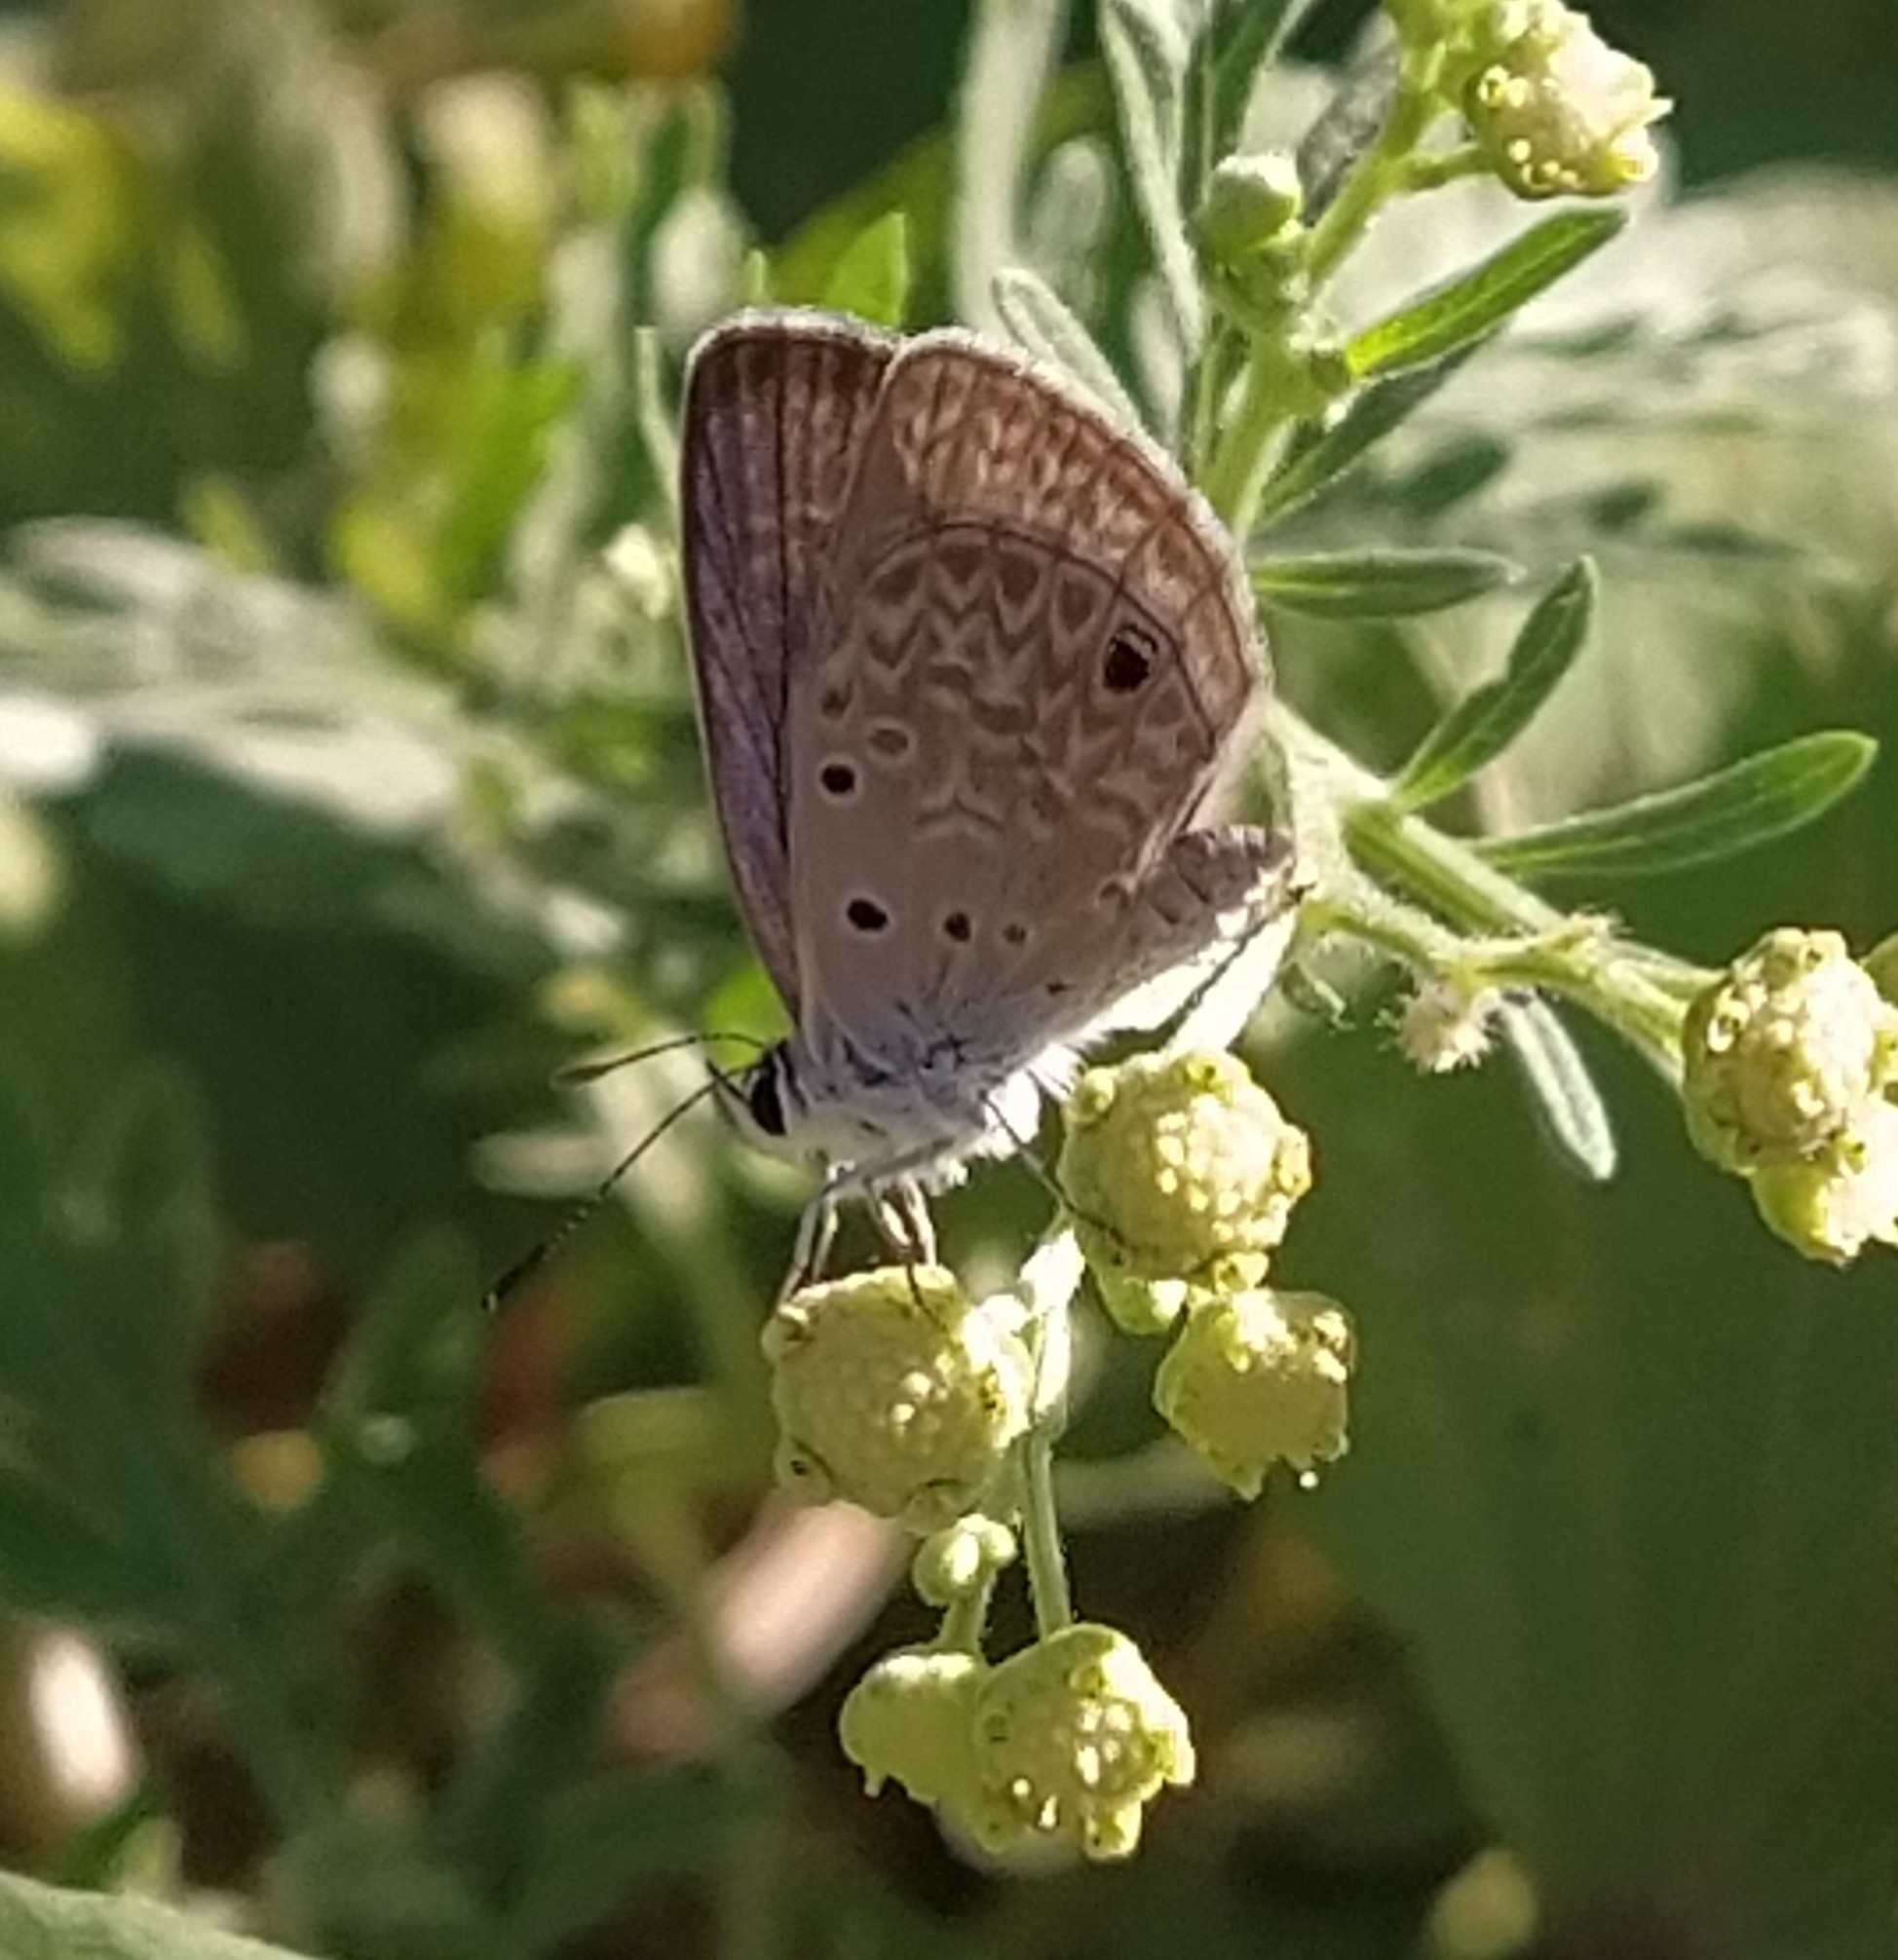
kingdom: Animalia
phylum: Arthropoda
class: Insecta
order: Lepidoptera
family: Lycaenidae
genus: Hemiargus
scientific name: Hemiargus hanno
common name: Common blue
